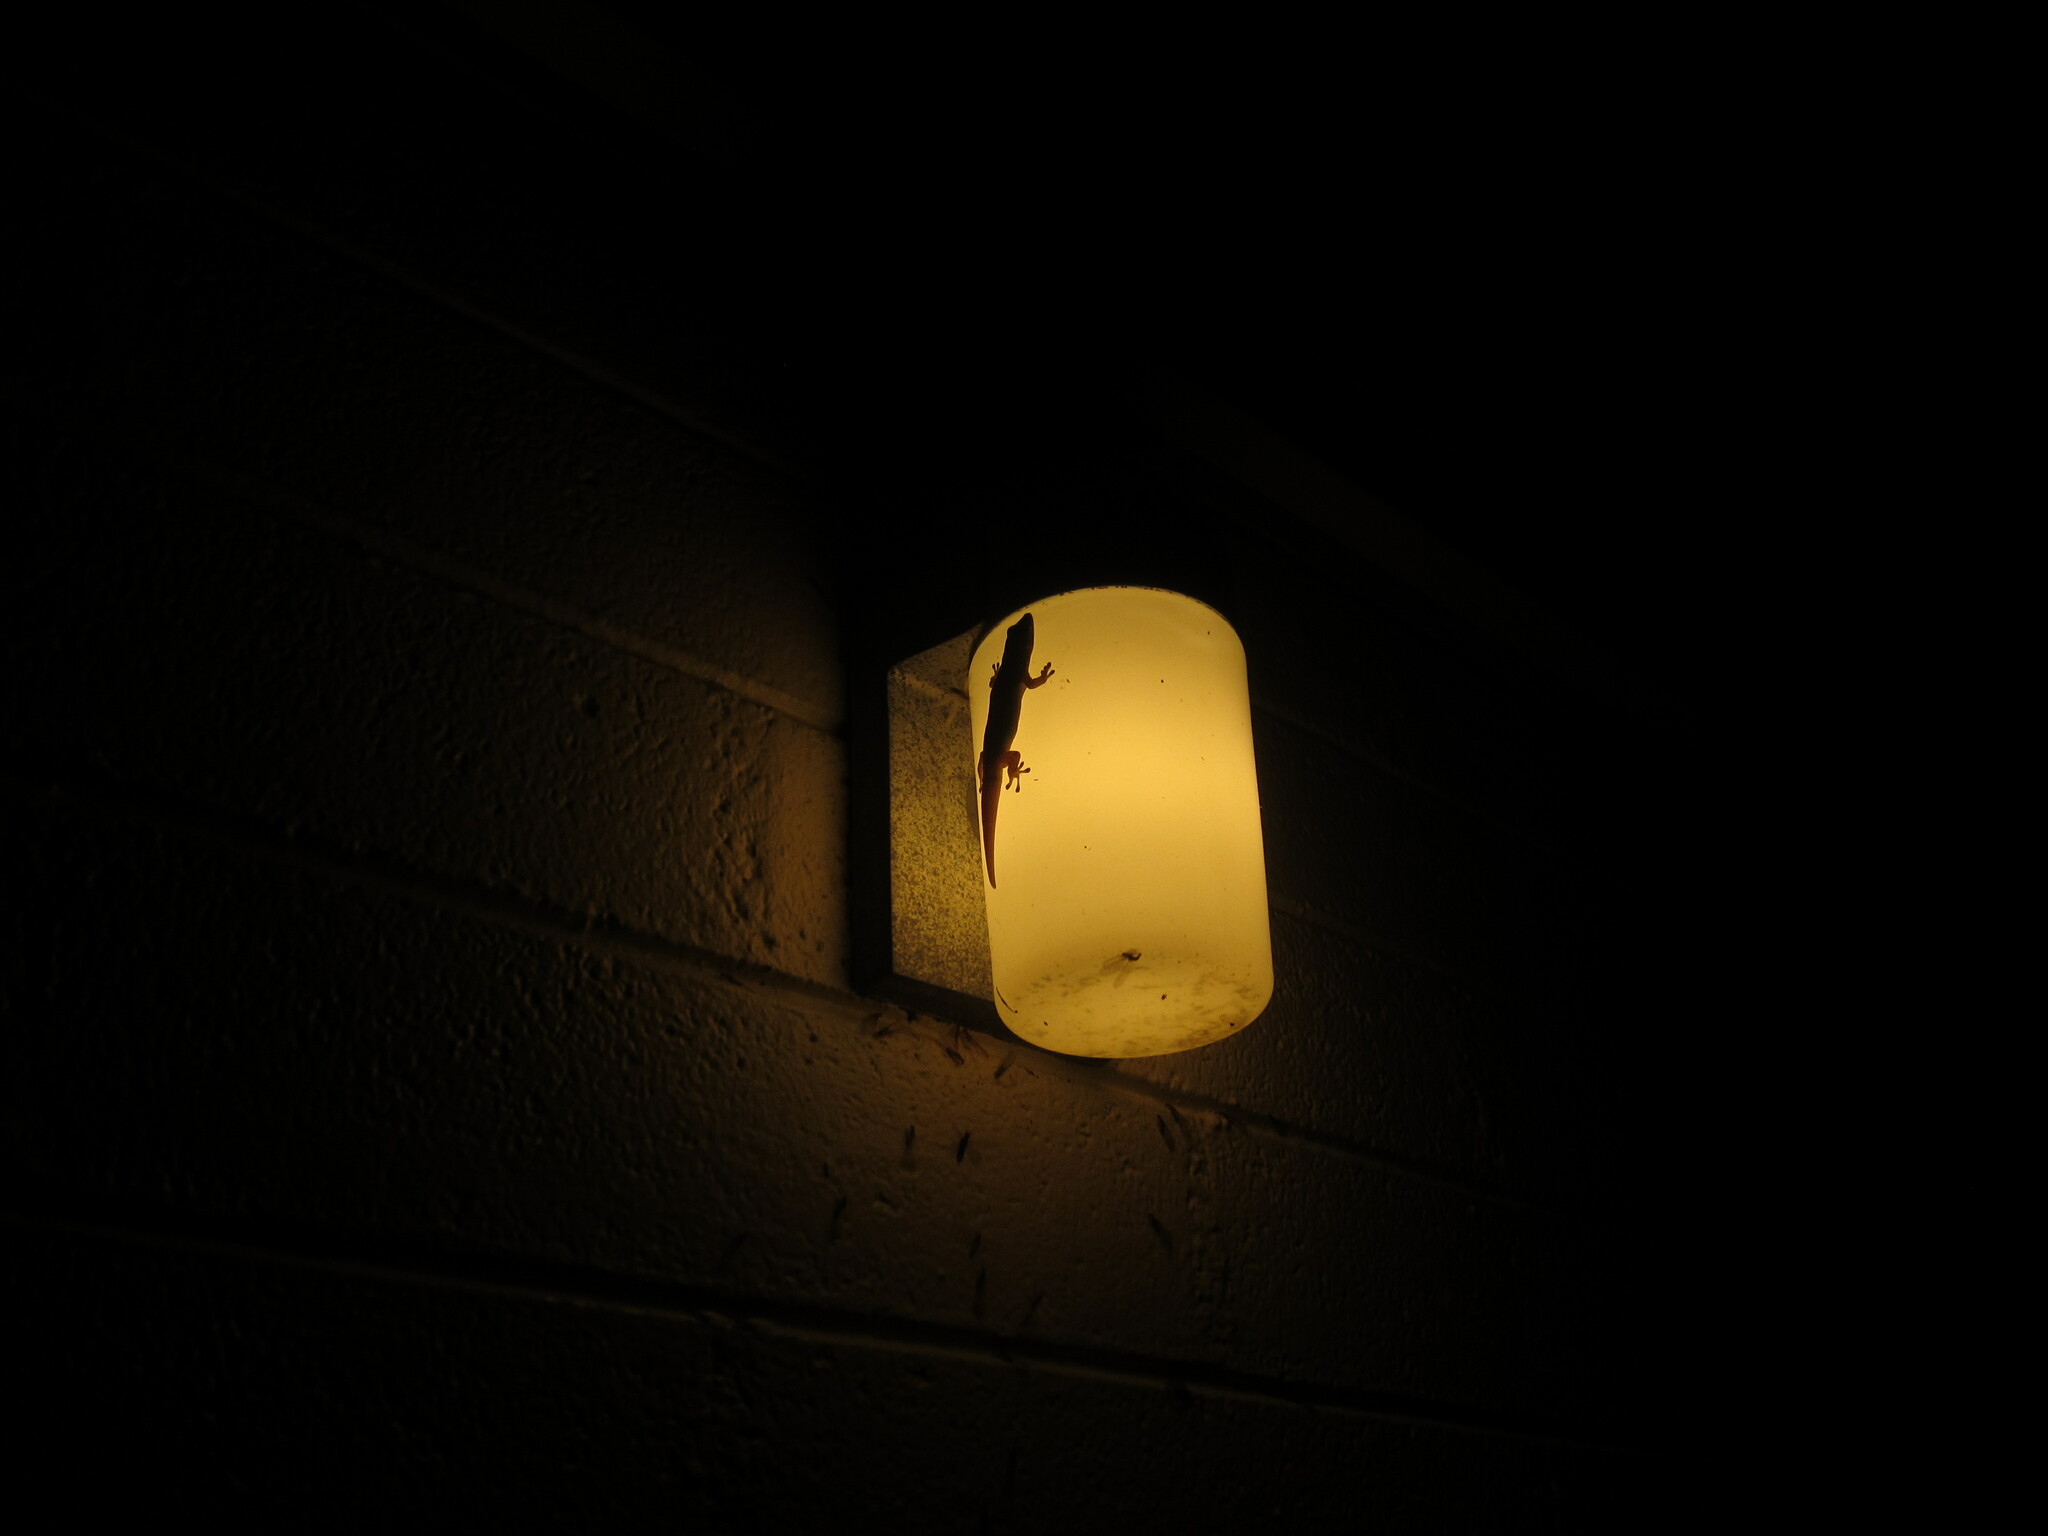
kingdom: Animalia
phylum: Chordata
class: Squamata
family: Gekkonidae
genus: Phelsuma
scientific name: Phelsuma laticauda
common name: Gold dust day gecko
